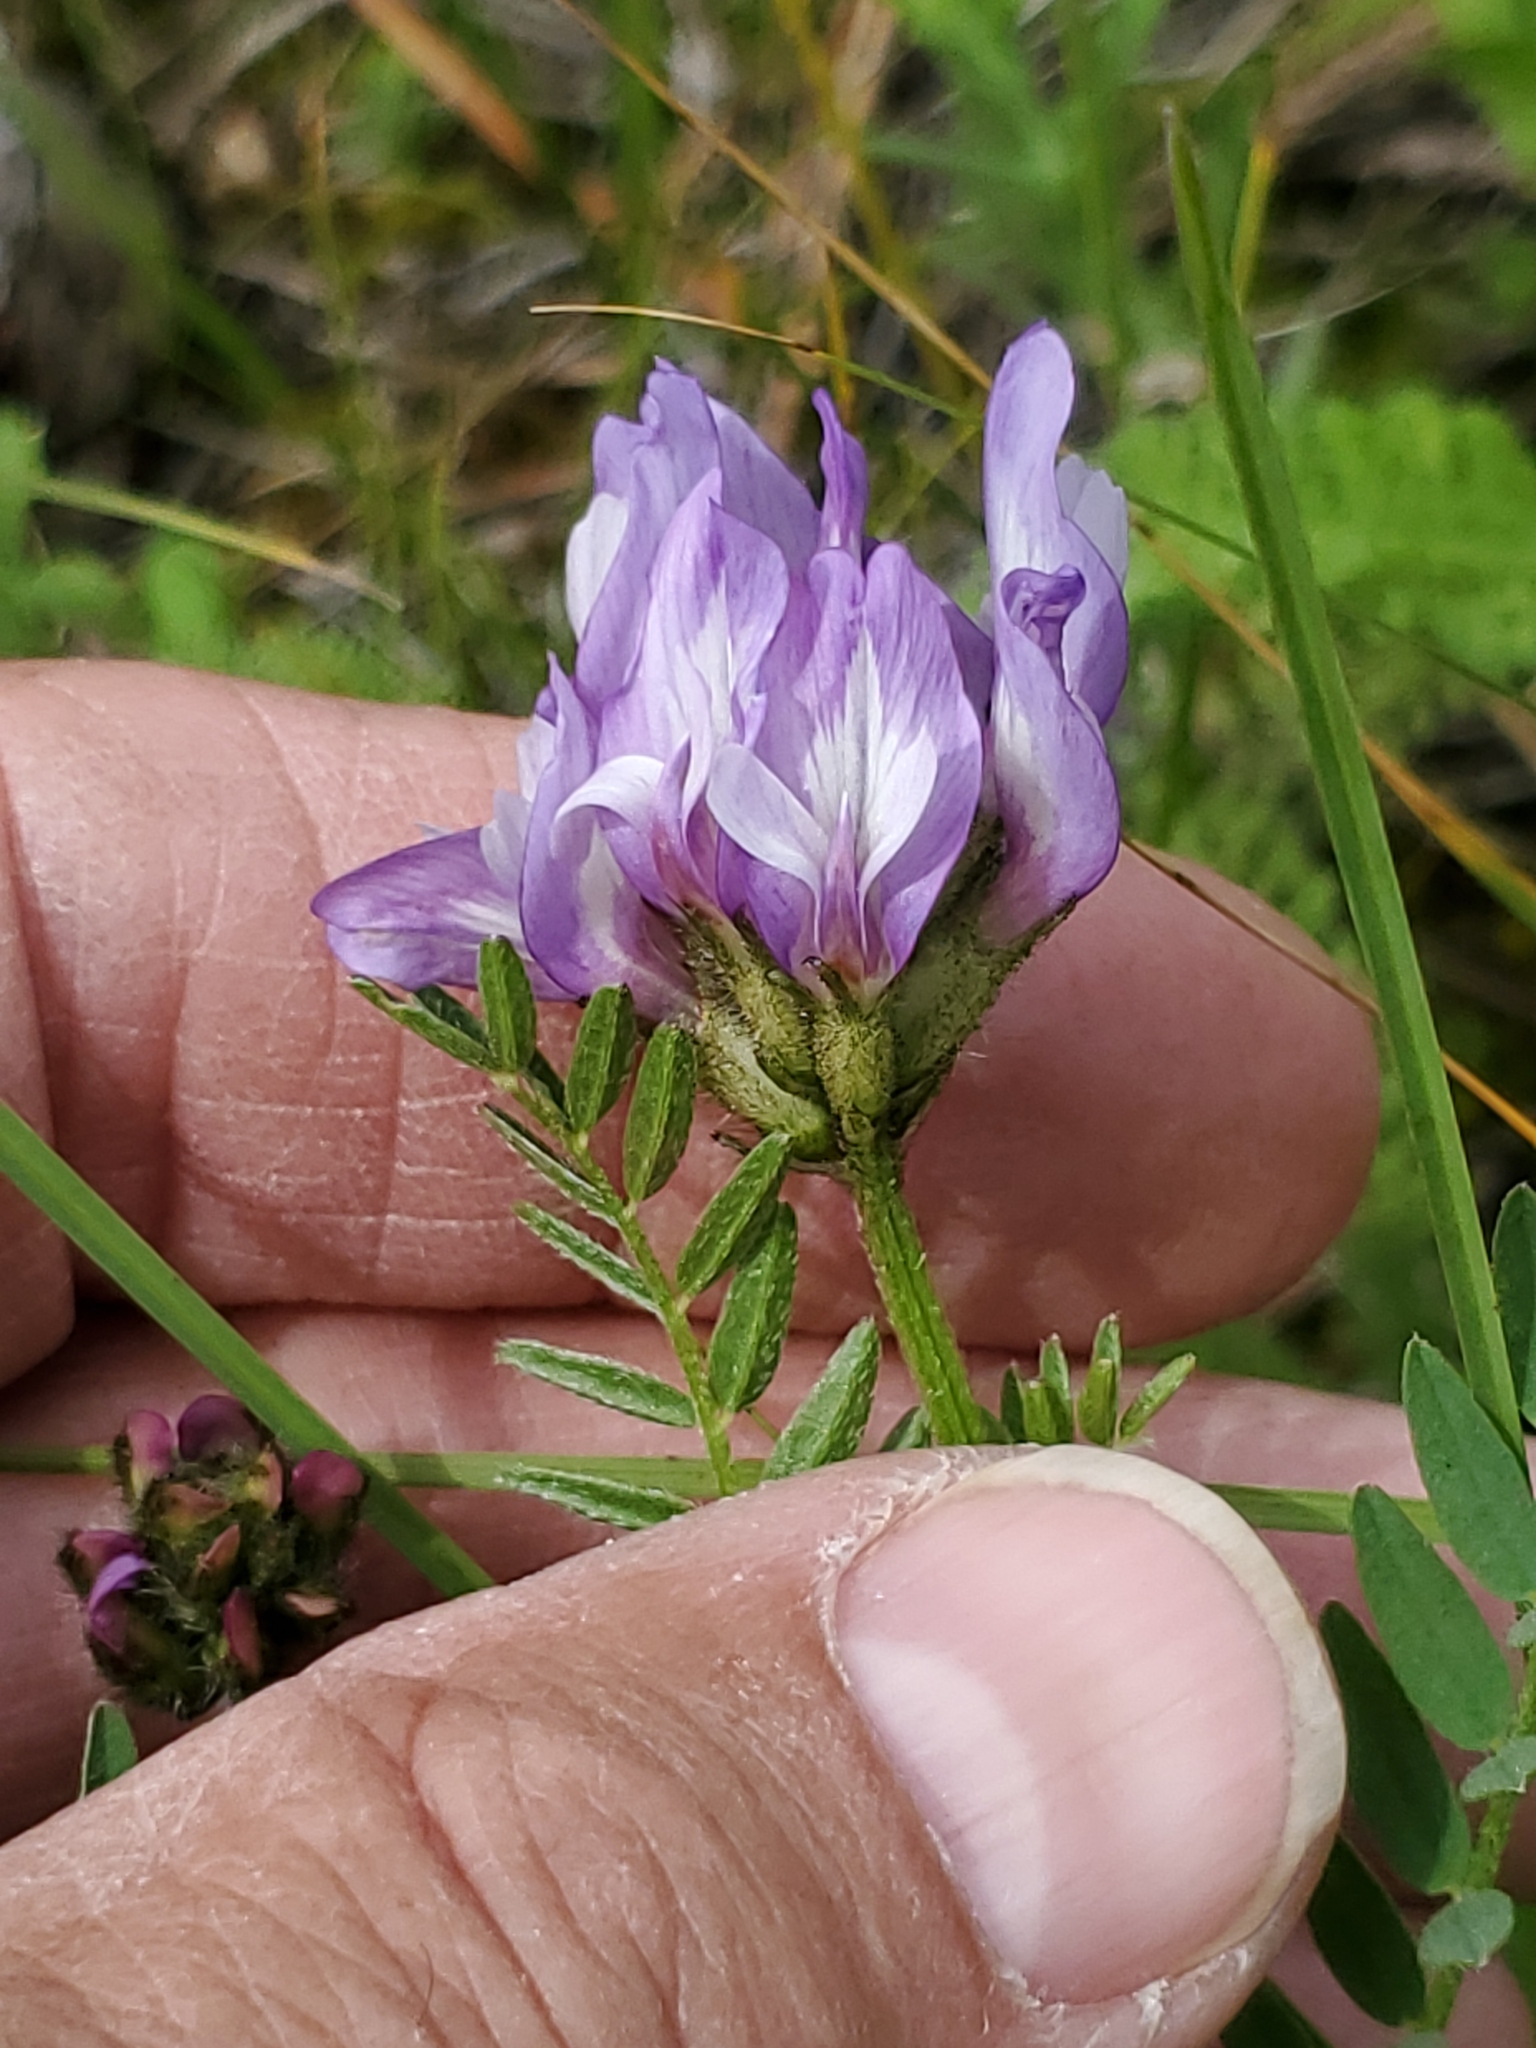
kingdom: Plantae
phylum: Tracheophyta
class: Magnoliopsida
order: Fabales
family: Fabaceae
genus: Astragalus
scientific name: Astragalus agrestis
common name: Field milk-vetch
